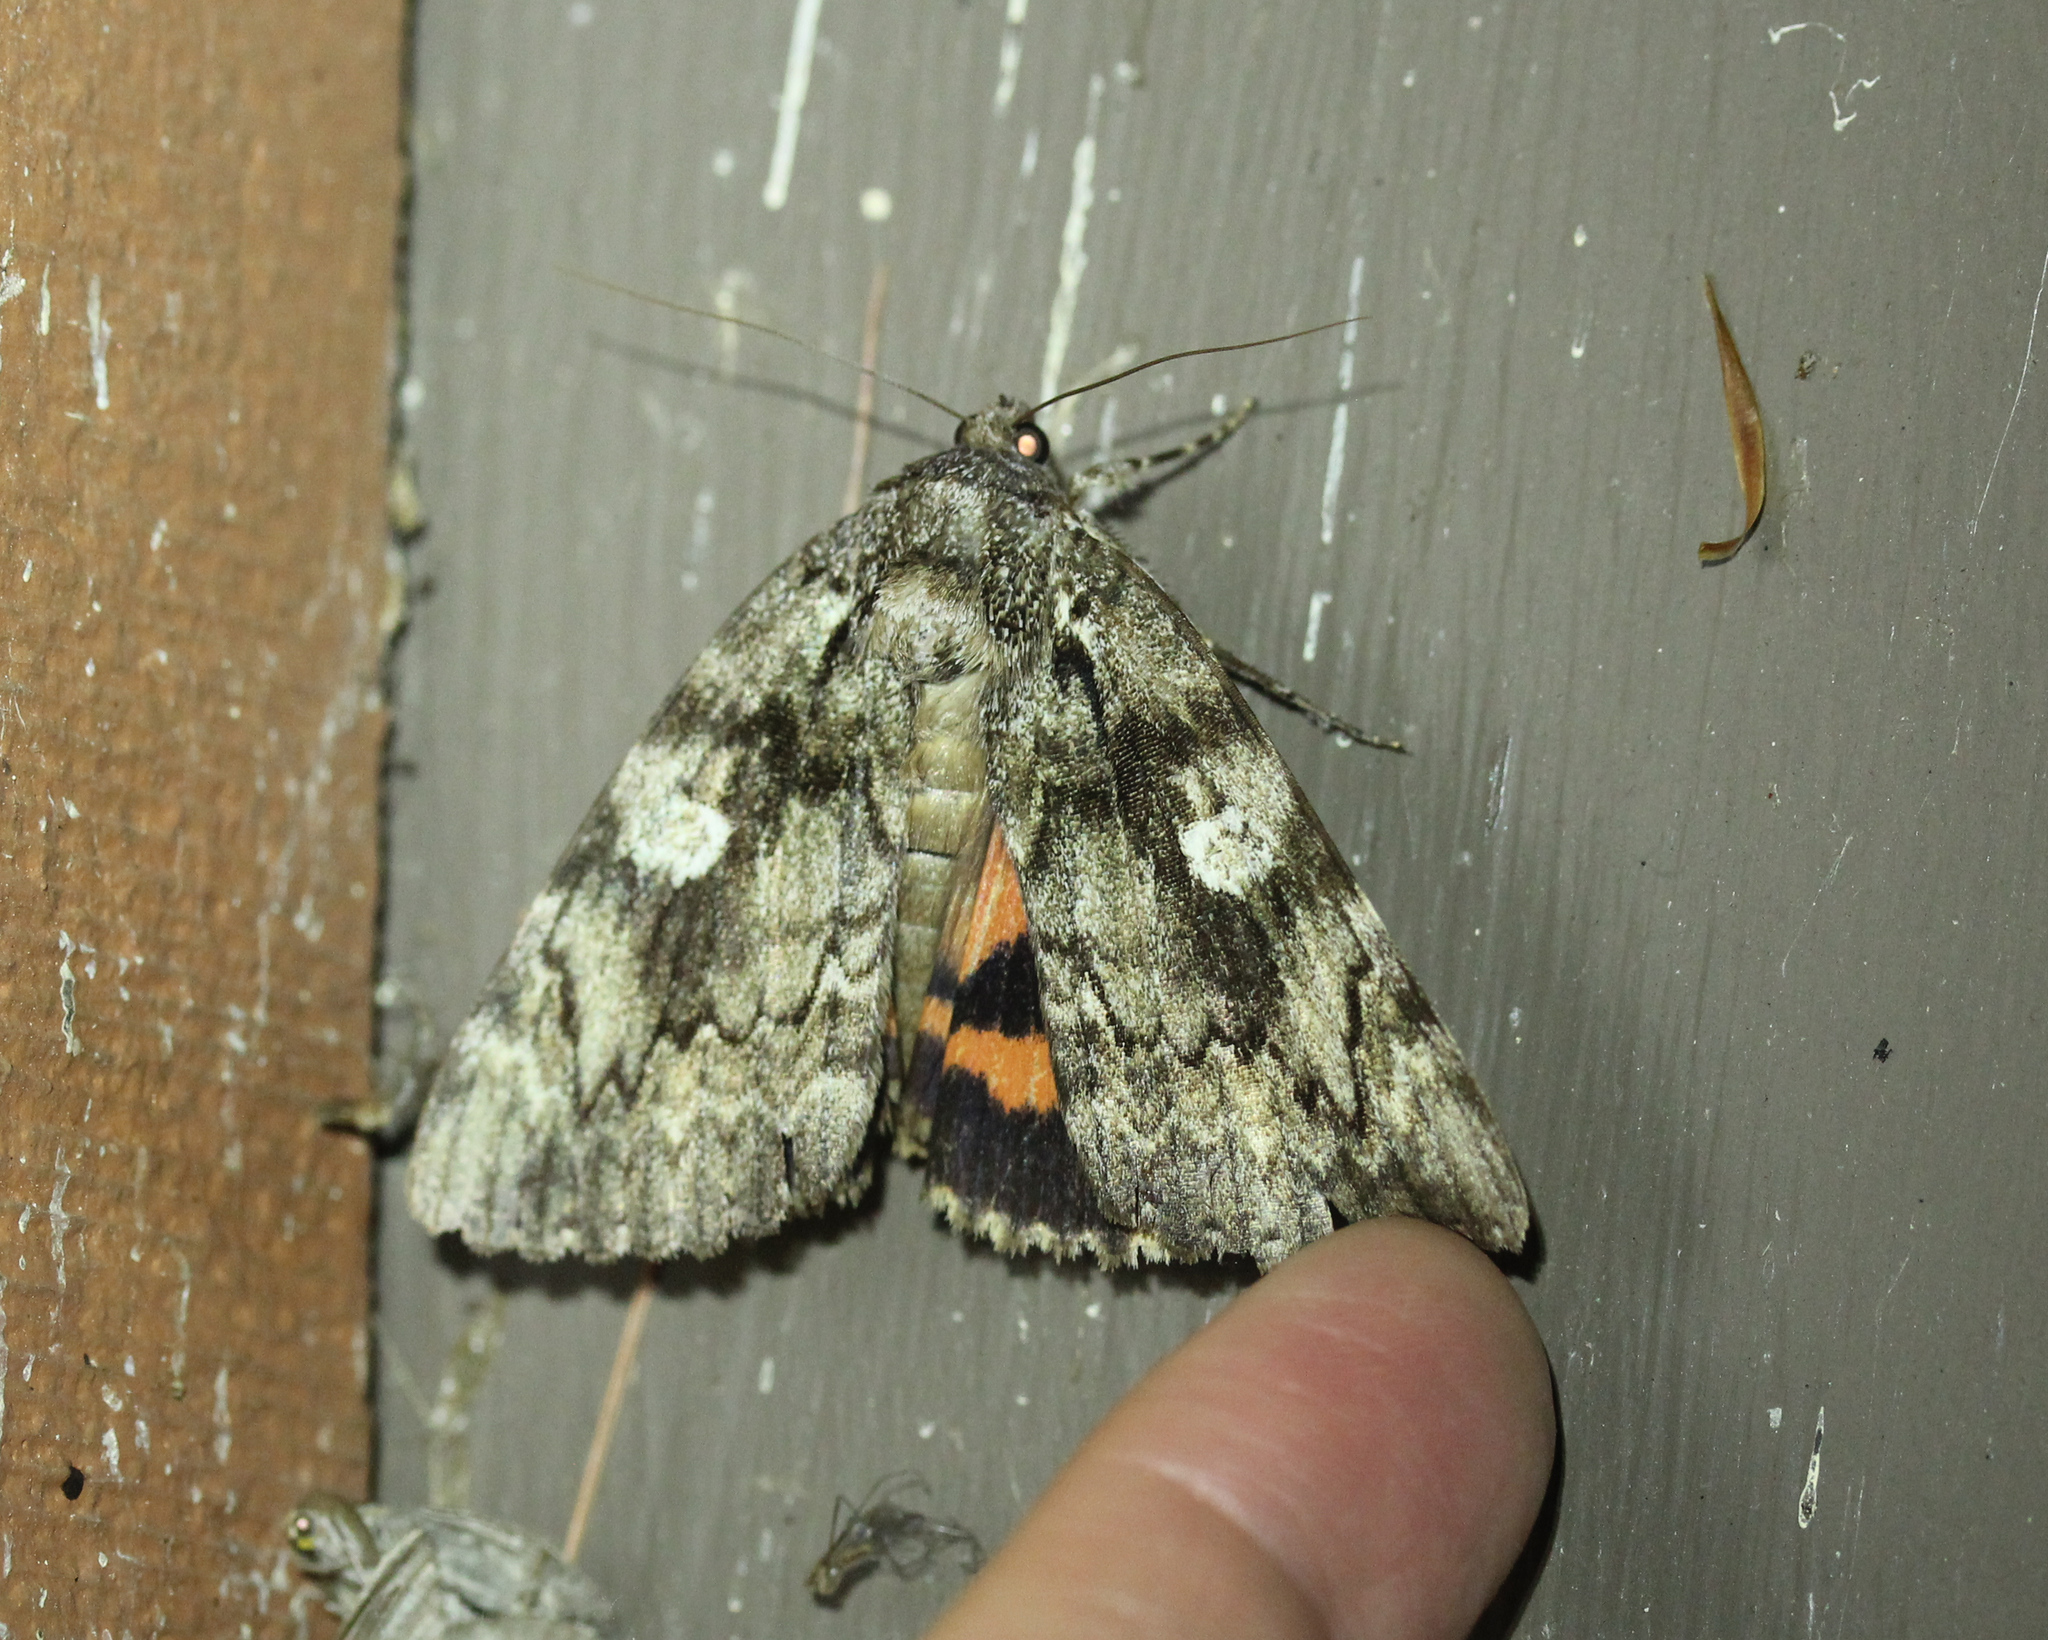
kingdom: Animalia
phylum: Arthropoda
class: Insecta
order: Lepidoptera
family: Erebidae
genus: Catocala
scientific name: Catocala ilia
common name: Ilia underwing
